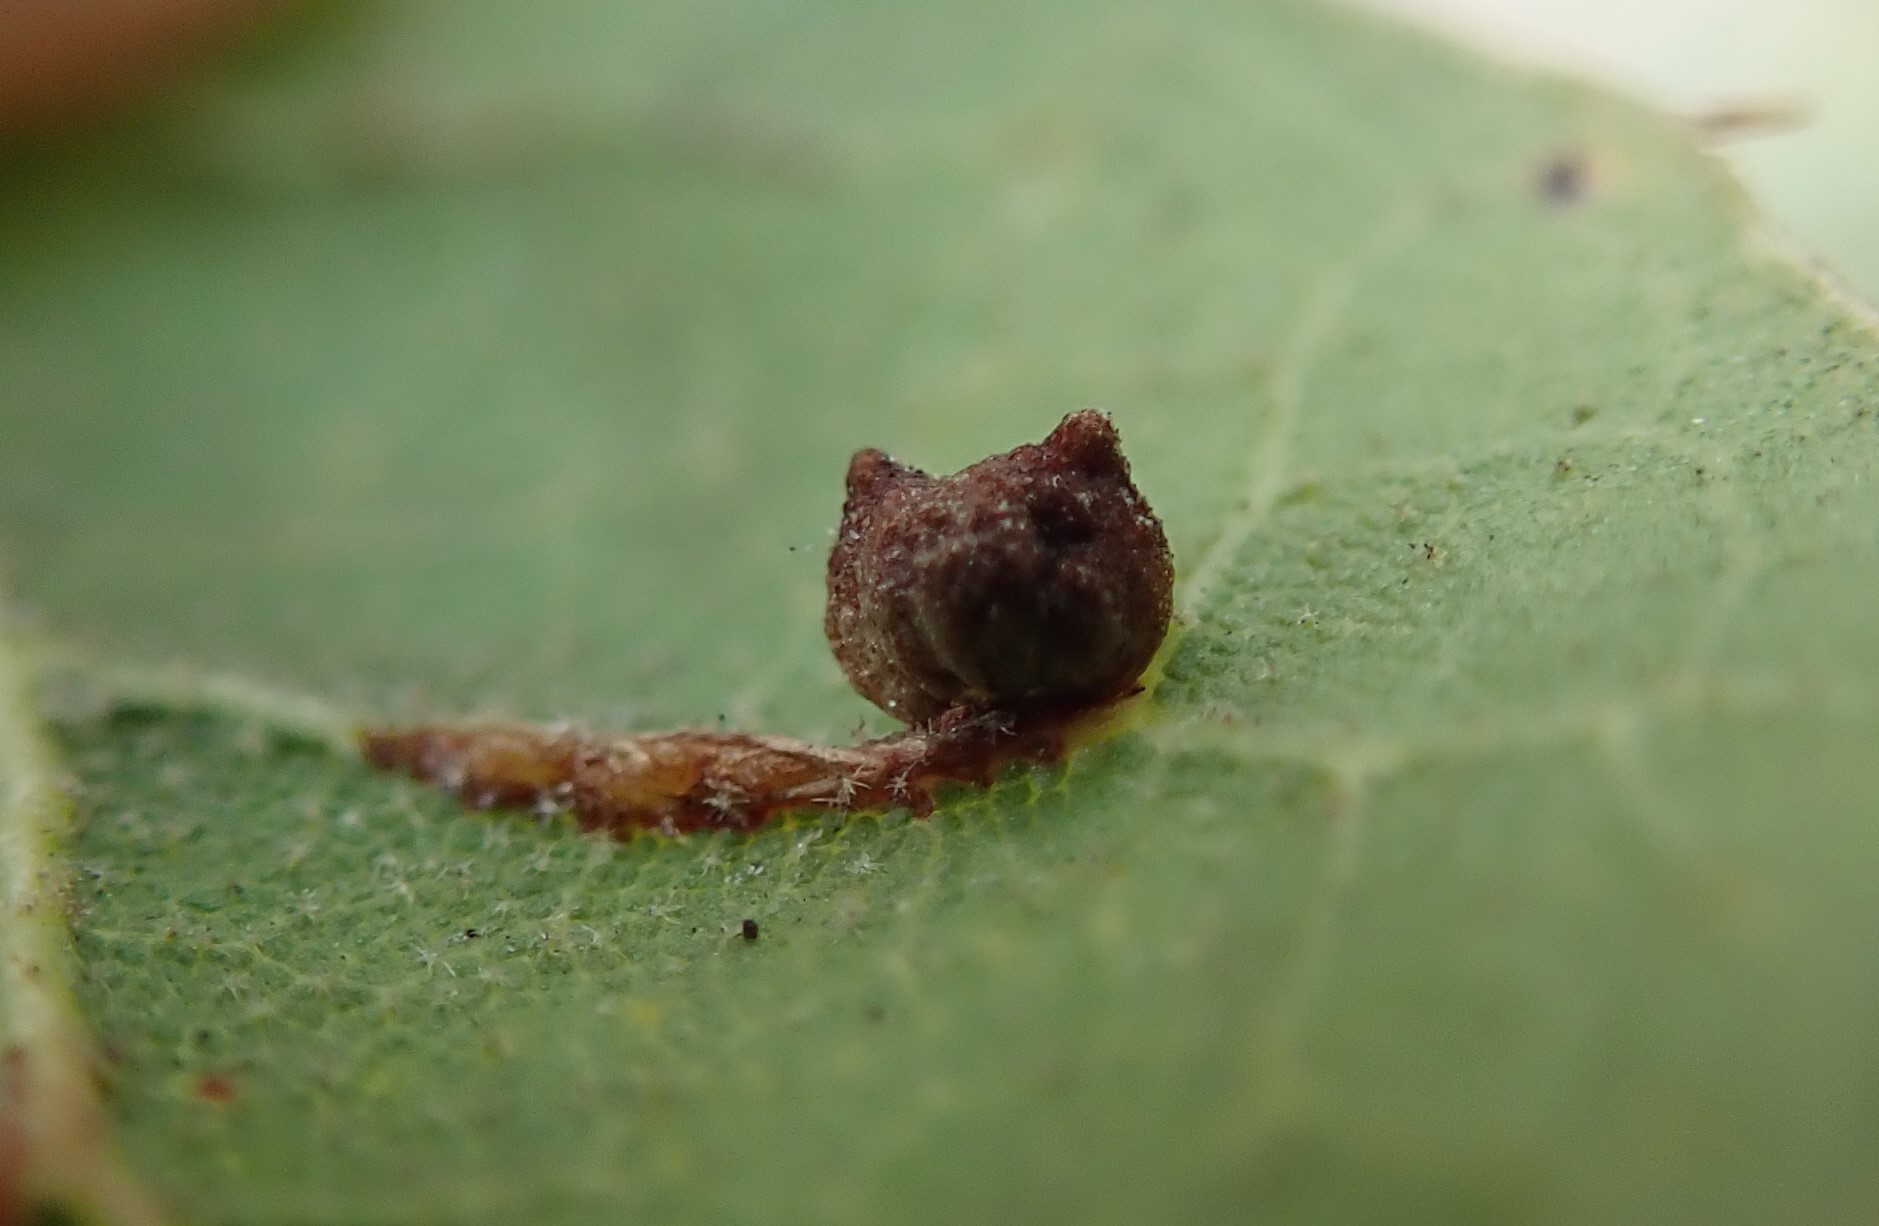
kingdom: Animalia
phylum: Arthropoda
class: Insecta
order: Hymenoptera
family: Cynipidae
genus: Dryocosmus
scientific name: Dryocosmus
